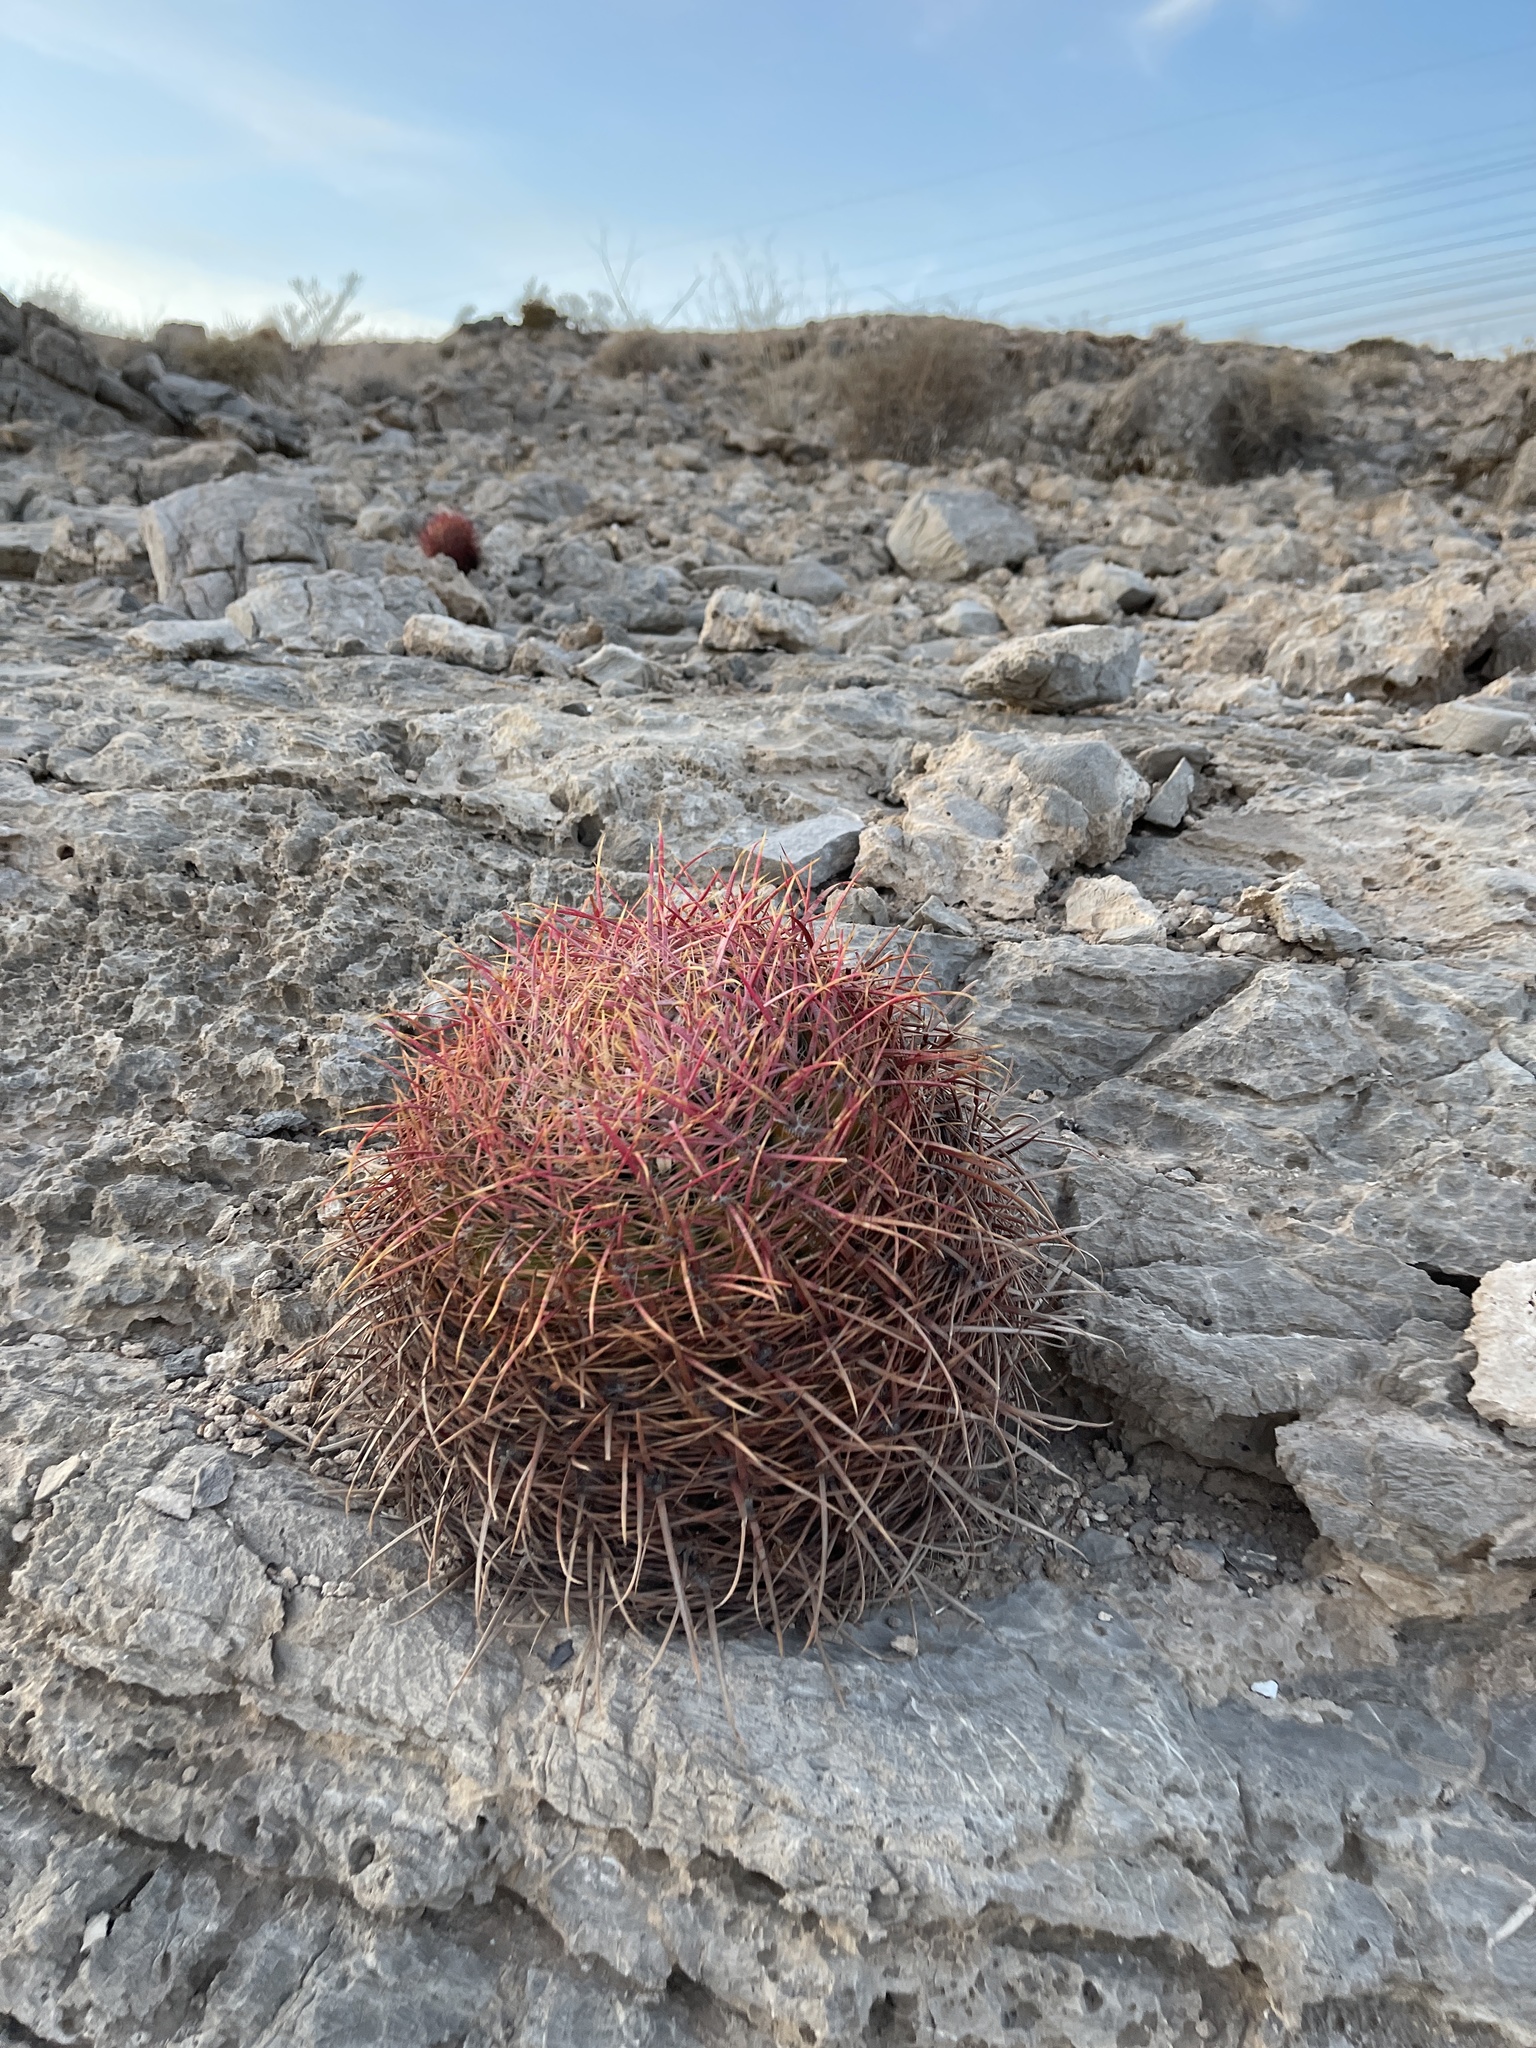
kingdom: Plantae
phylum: Tracheophyta
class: Magnoliopsida
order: Caryophyllales
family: Cactaceae
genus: Ferocactus
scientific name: Ferocactus cylindraceus
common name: California barrel cactus
